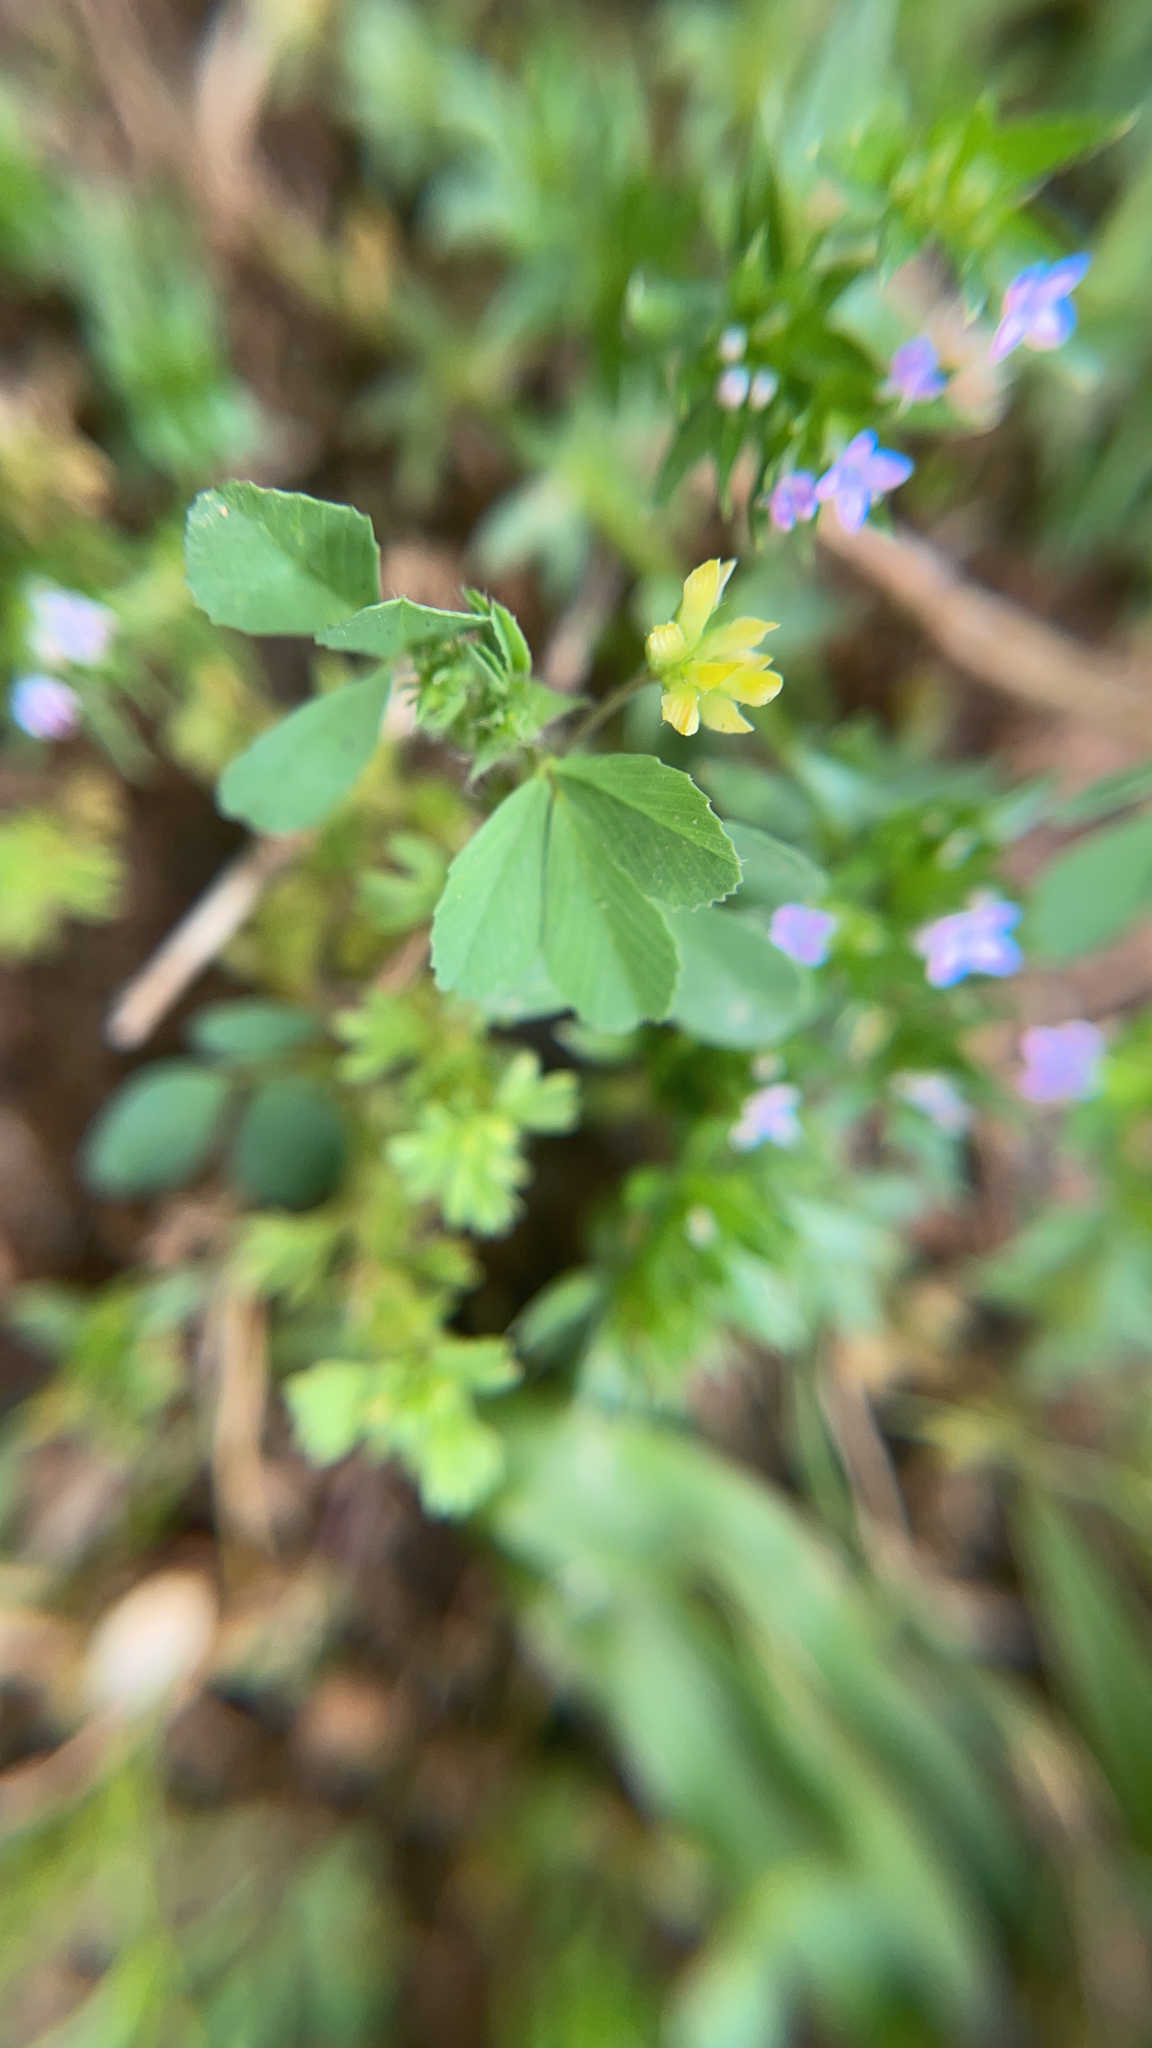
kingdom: Plantae
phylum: Tracheophyta
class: Magnoliopsida
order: Fabales
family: Fabaceae
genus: Trifolium
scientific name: Trifolium dubium
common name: Suckling clover
